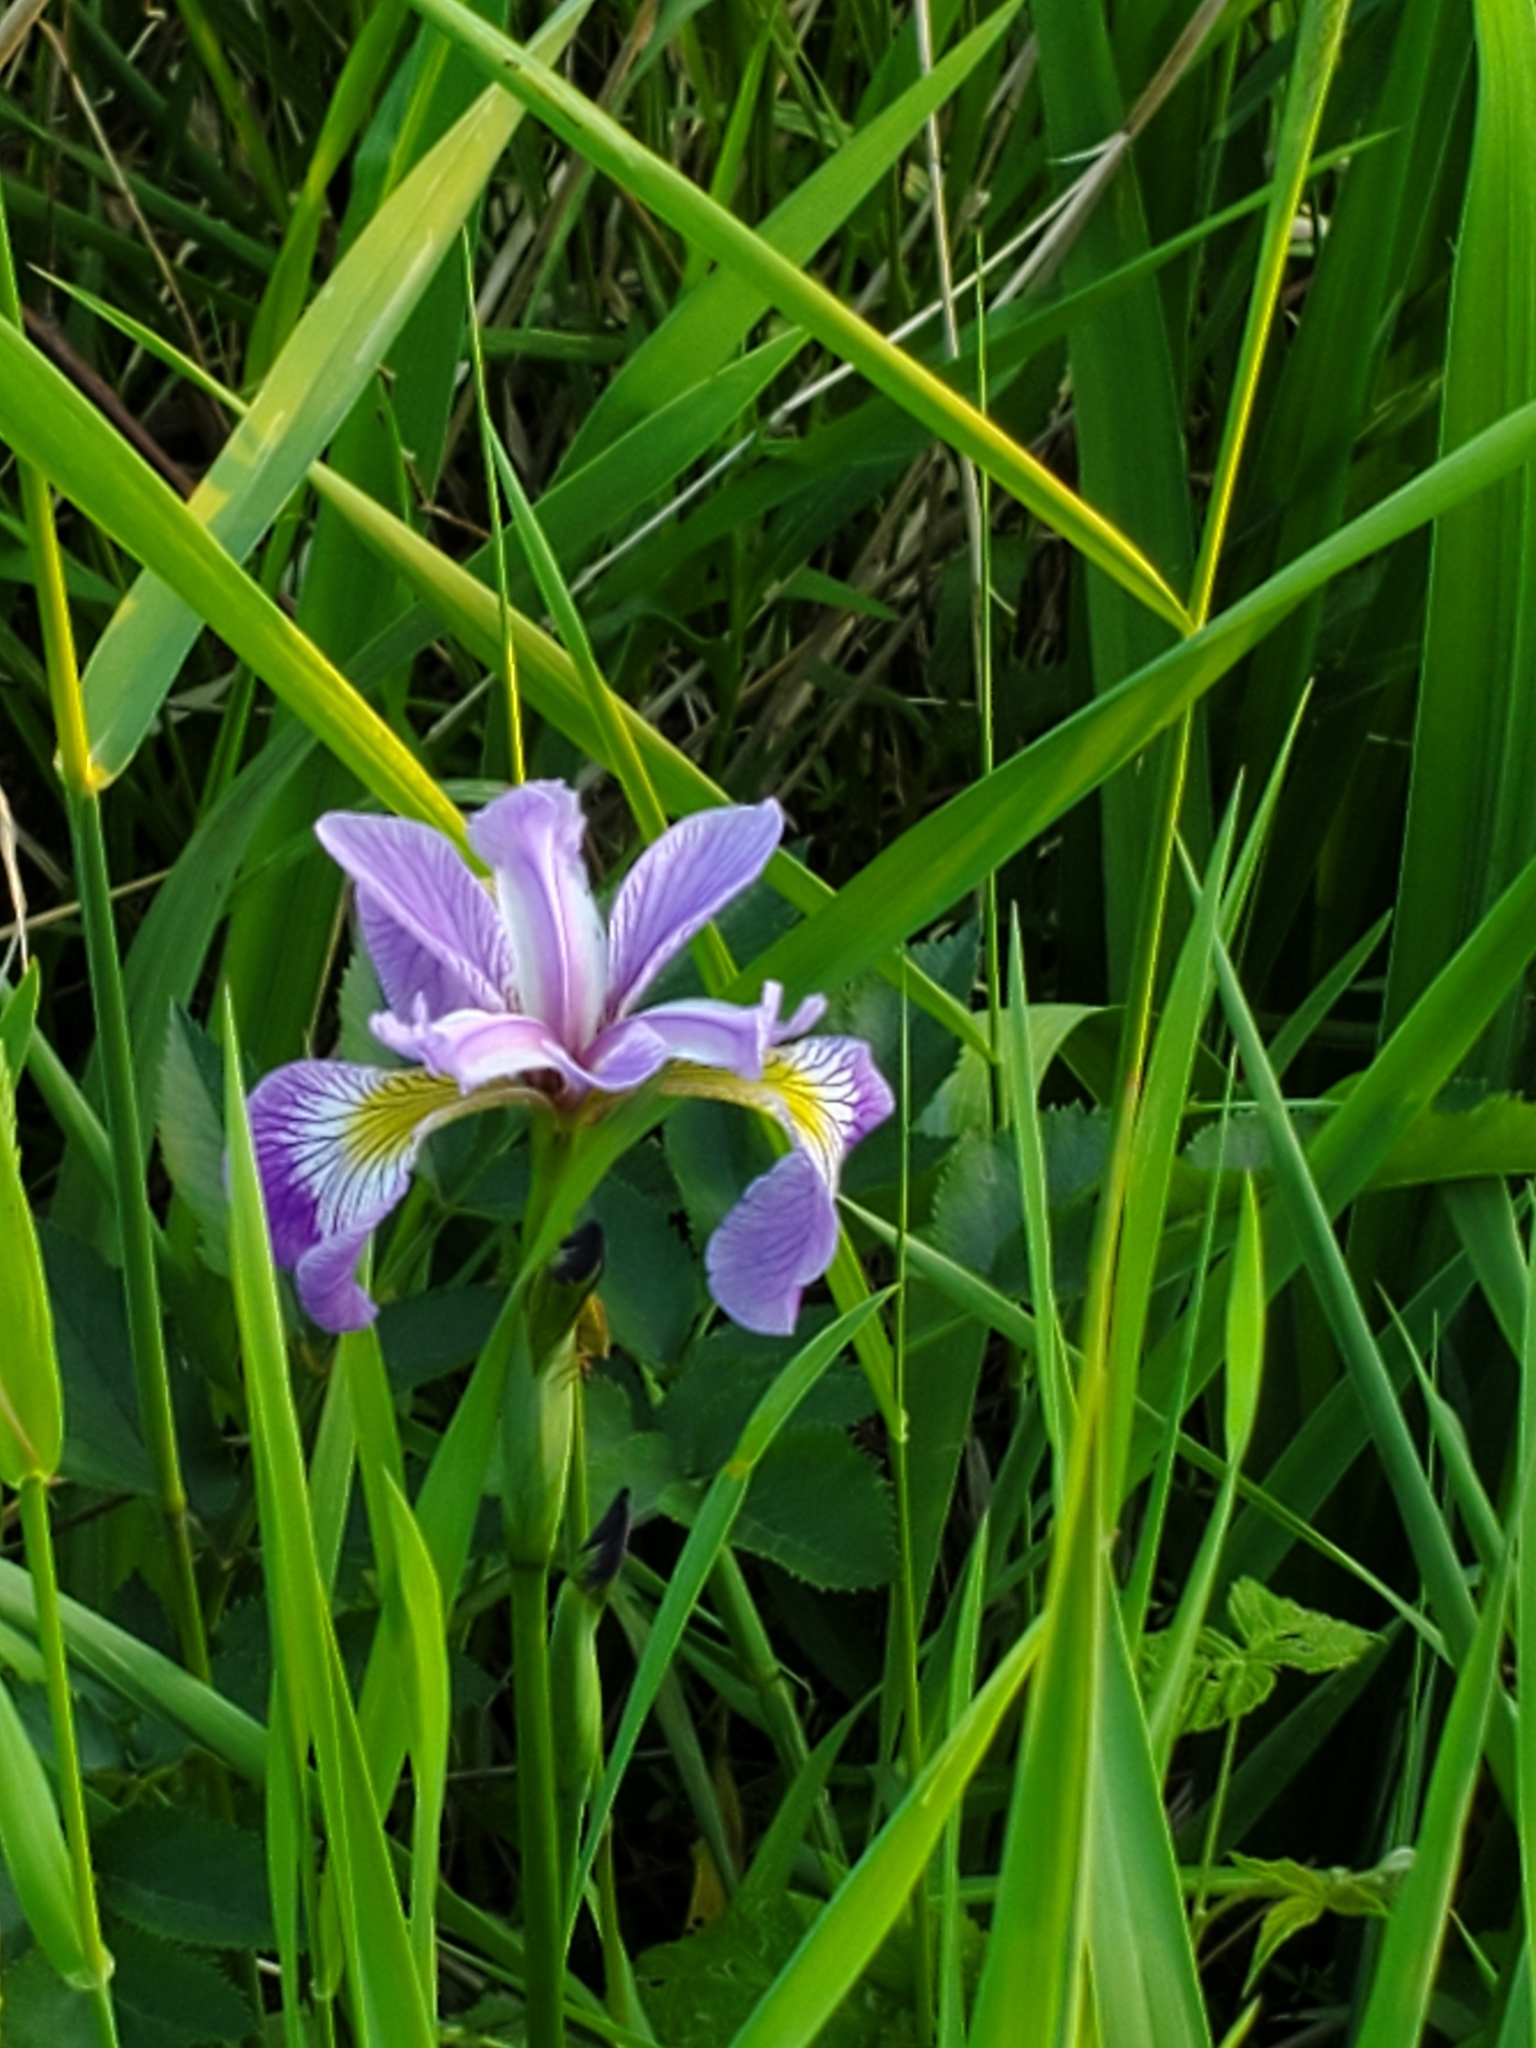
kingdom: Plantae
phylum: Tracheophyta
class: Liliopsida
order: Asparagales
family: Iridaceae
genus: Iris
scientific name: Iris versicolor
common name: Purple iris
